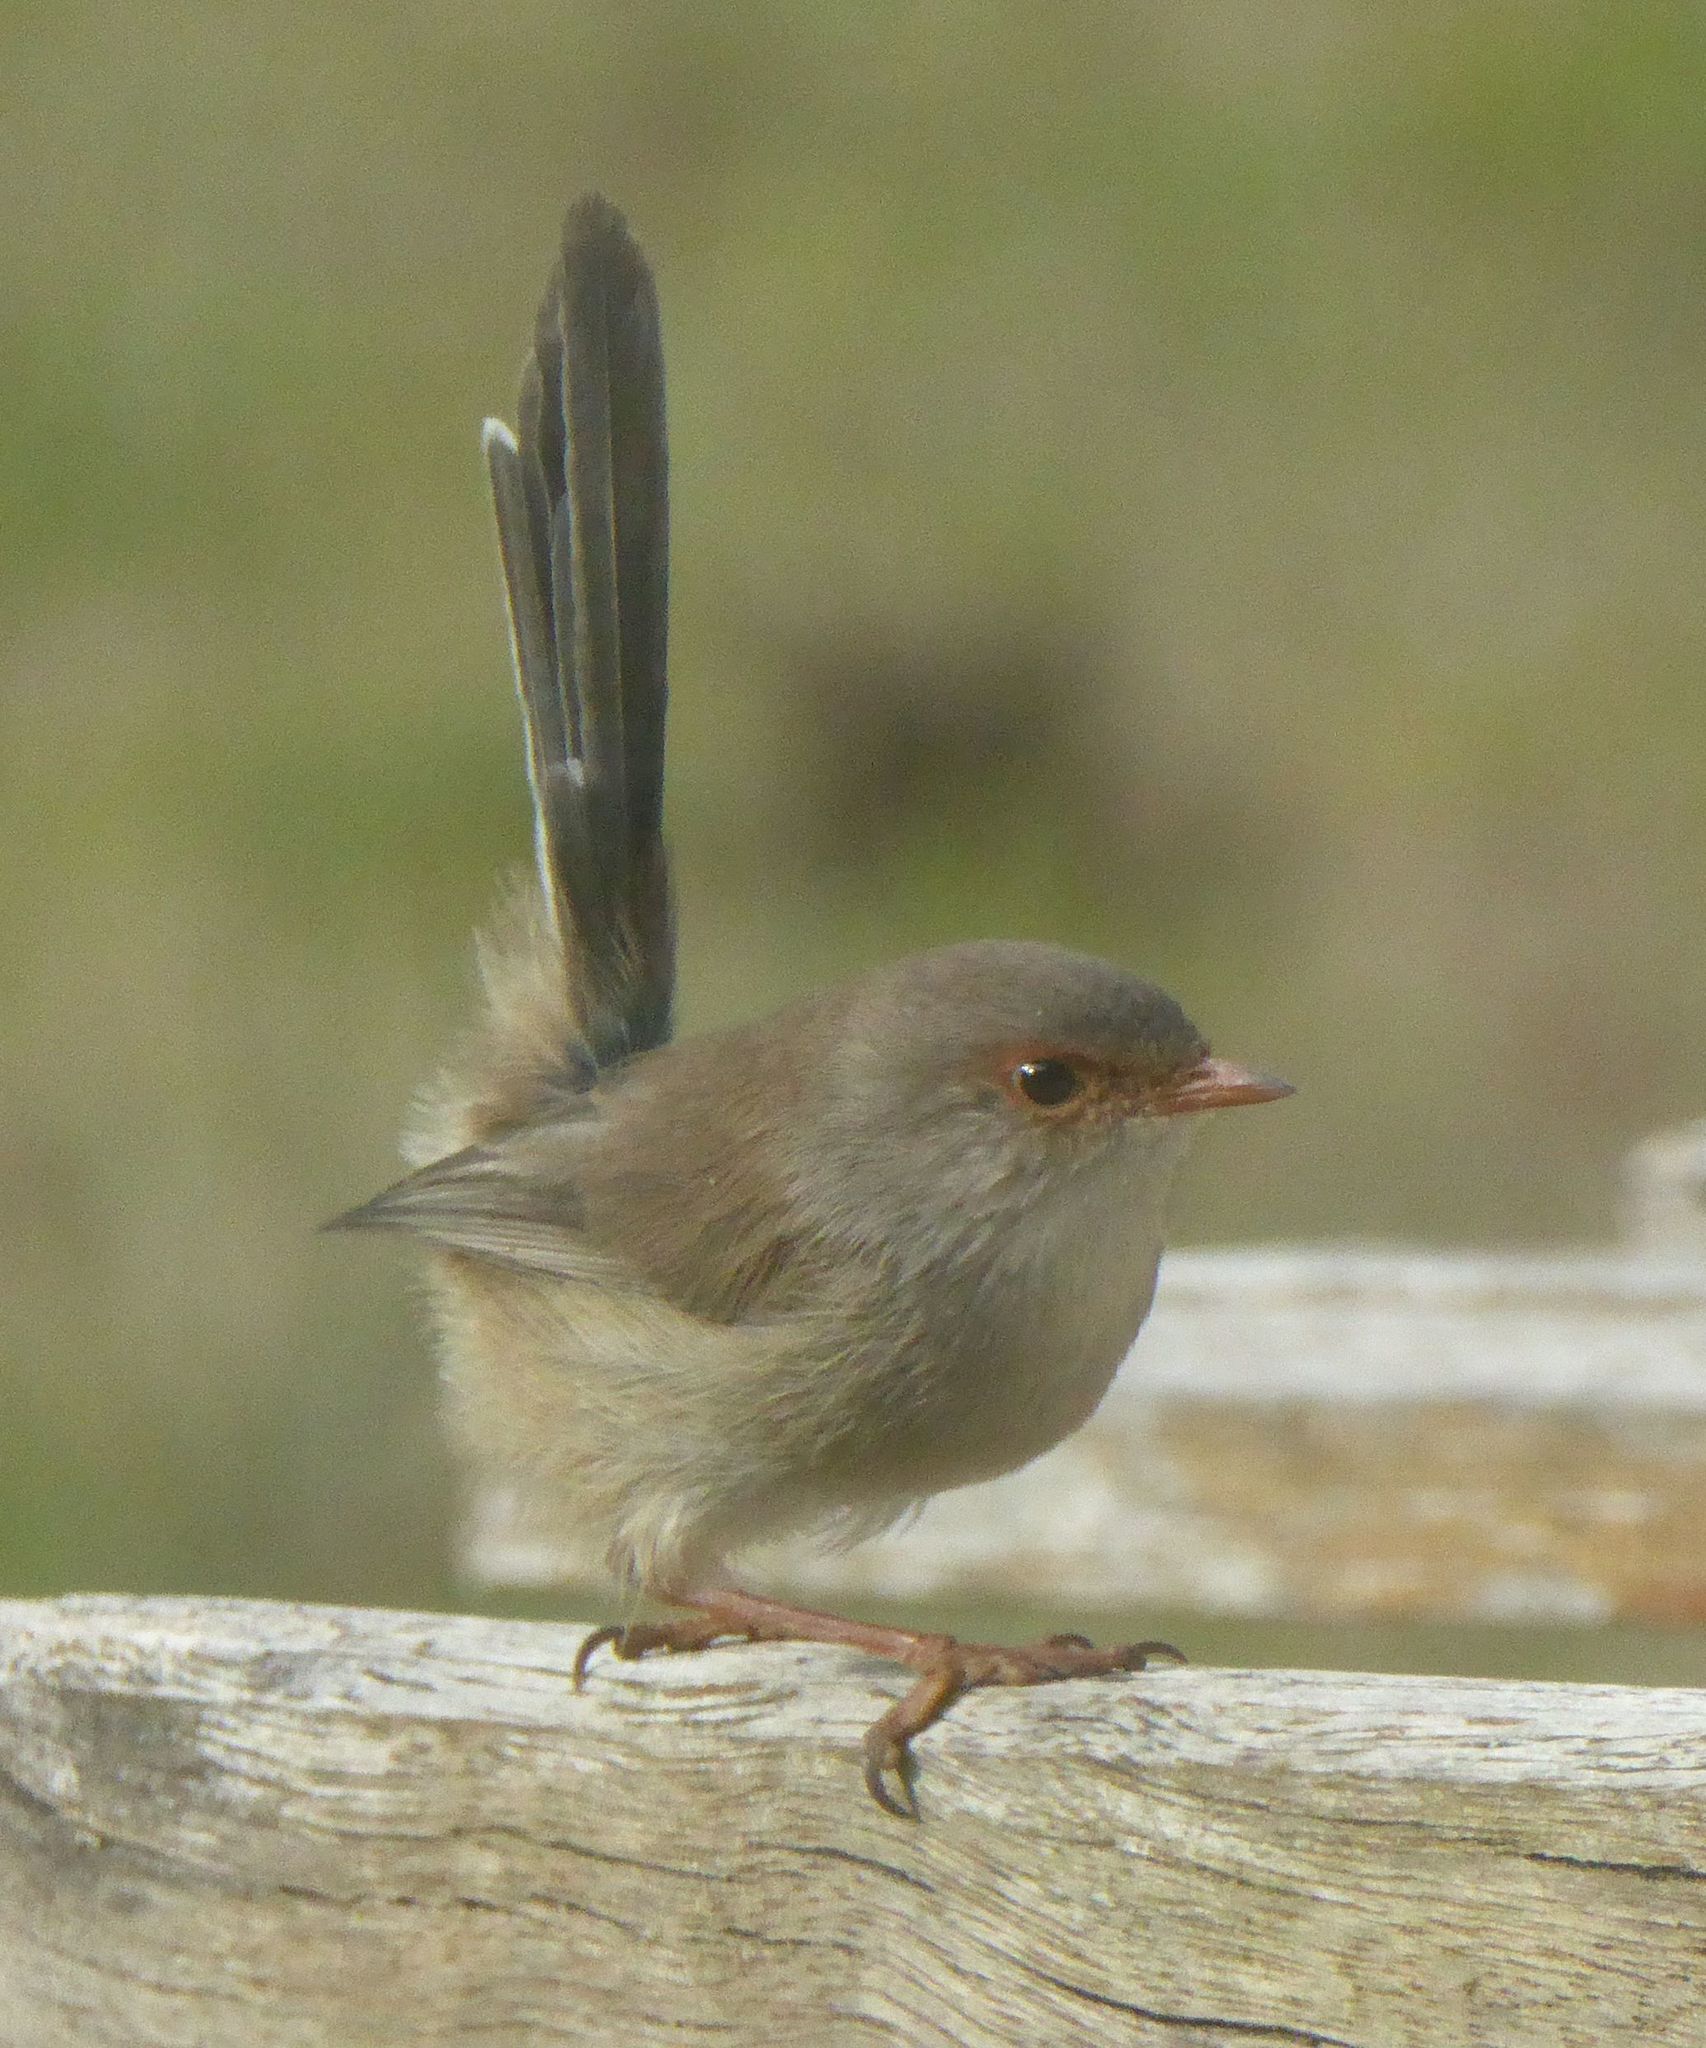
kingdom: Animalia
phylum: Chordata
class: Aves
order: Passeriformes
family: Maluridae
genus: Malurus
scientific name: Malurus cyaneus
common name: Superb fairywren
